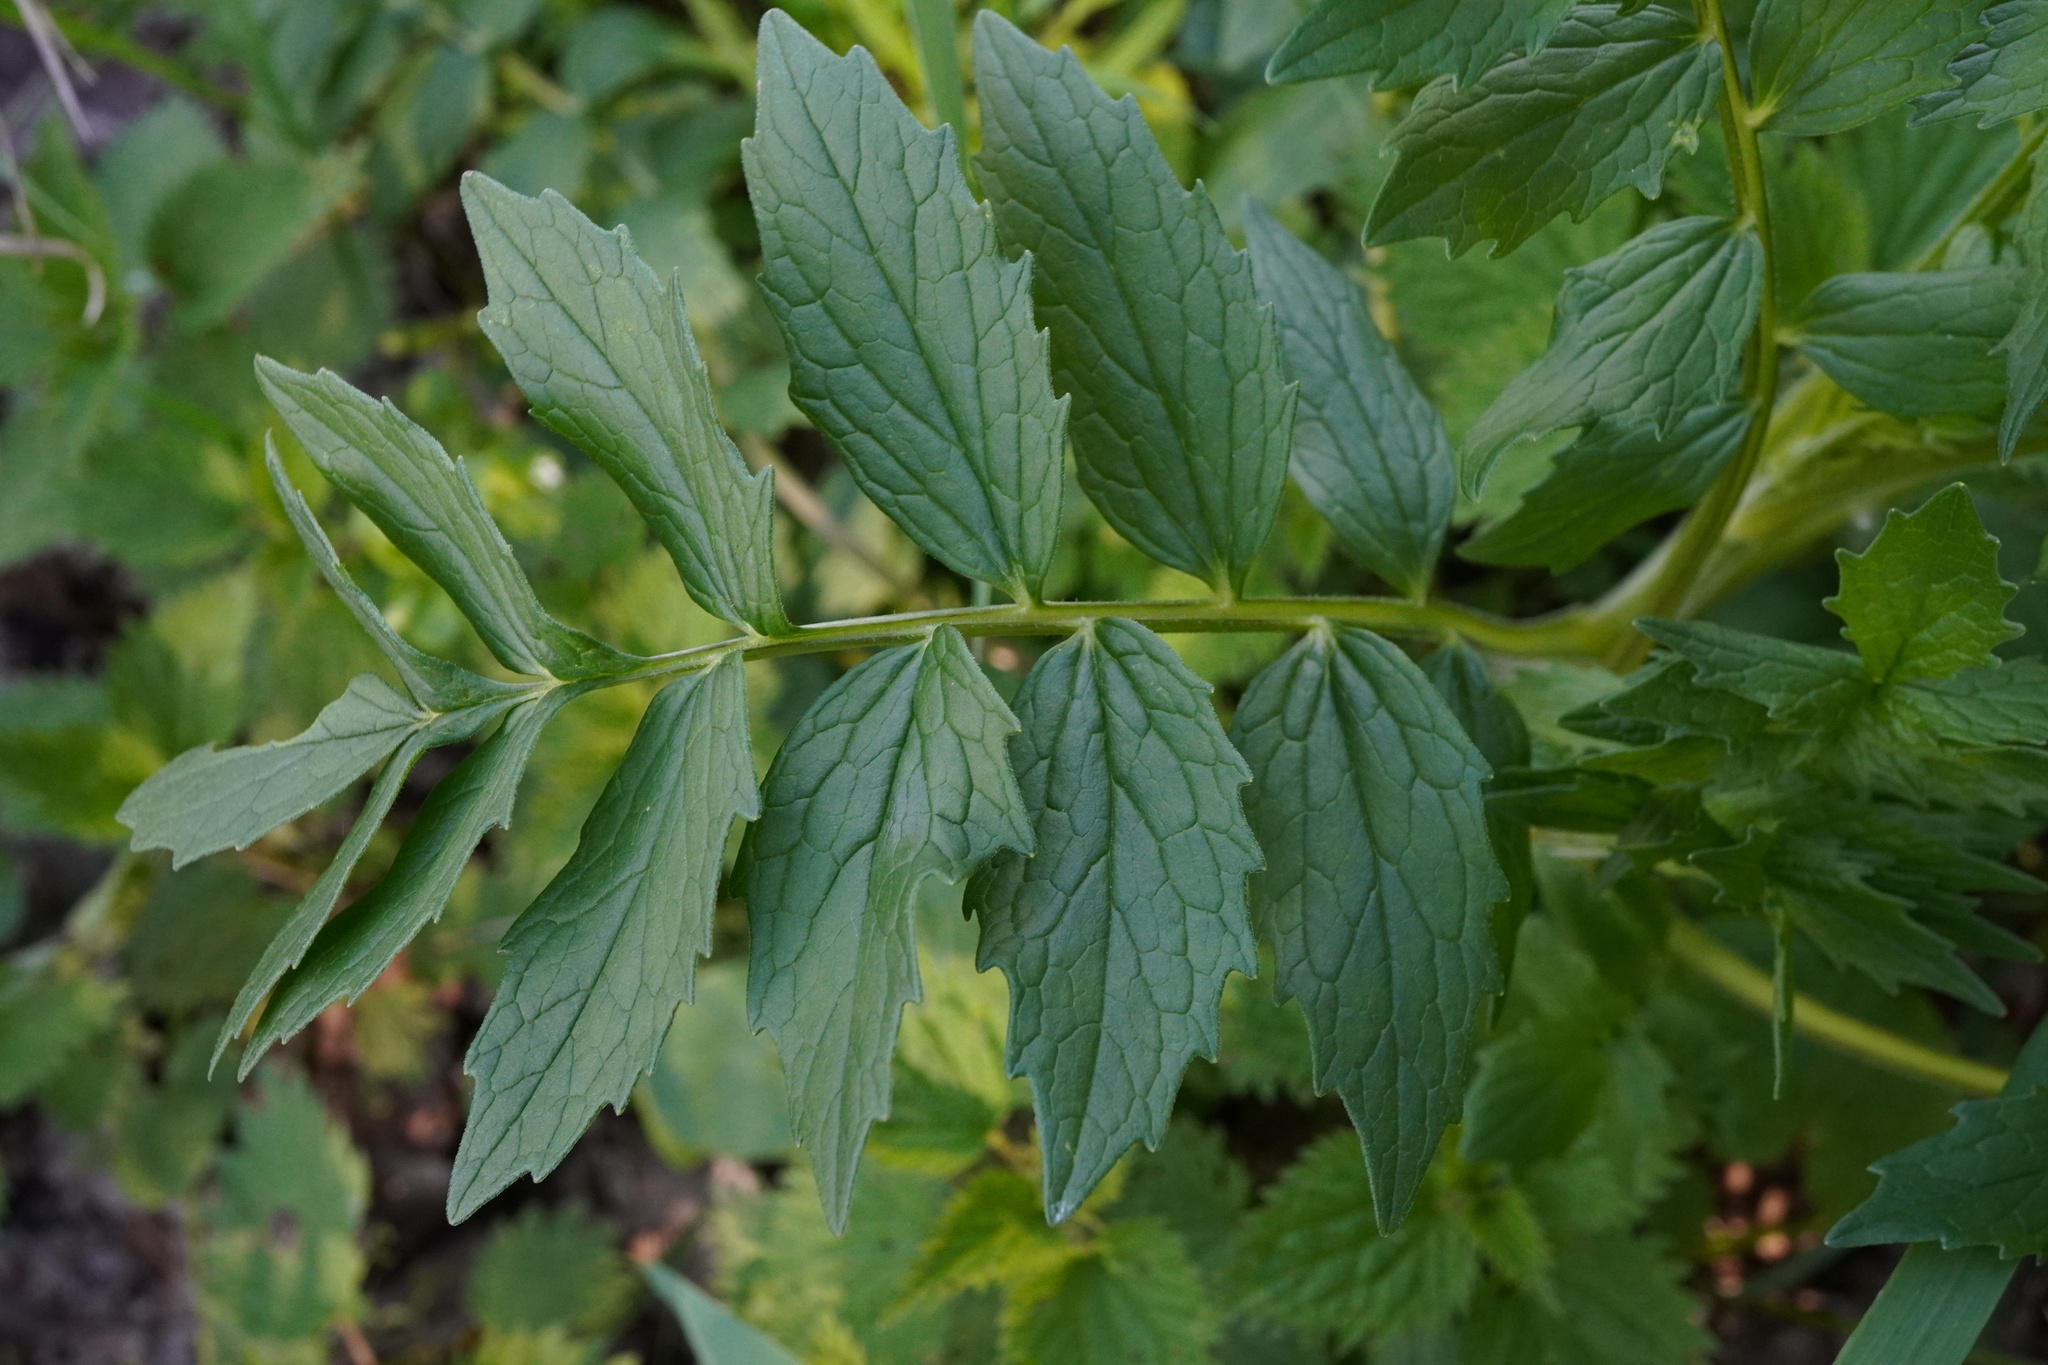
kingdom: Plantae
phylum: Tracheophyta
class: Magnoliopsida
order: Dipsacales
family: Caprifoliaceae
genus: Valeriana
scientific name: Valeriana
